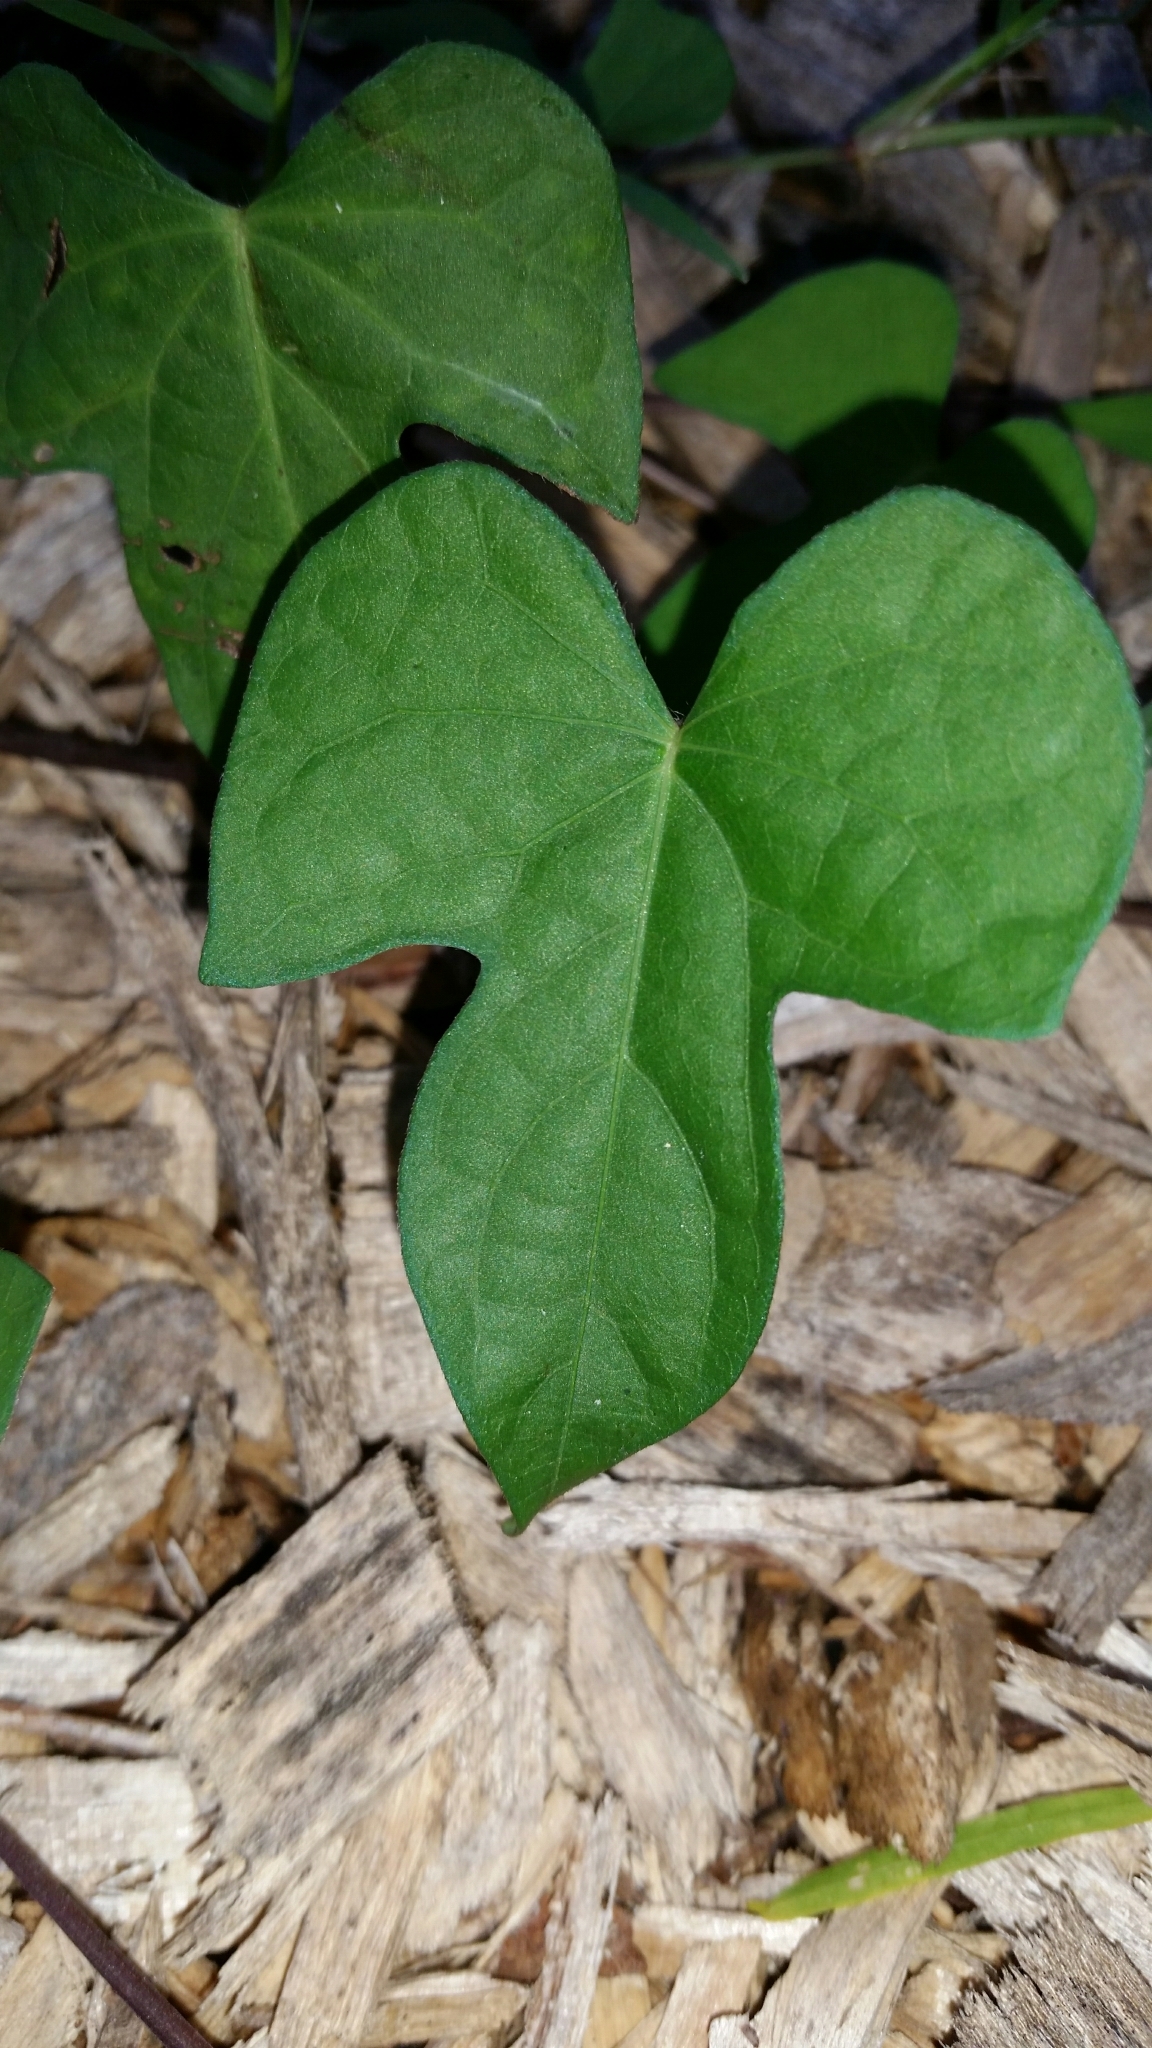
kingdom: Plantae
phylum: Tracheophyta
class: Magnoliopsida
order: Solanales
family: Convolvulaceae
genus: Ipomoea
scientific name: Ipomoea cordatotriloba
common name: Cotton morning glory
